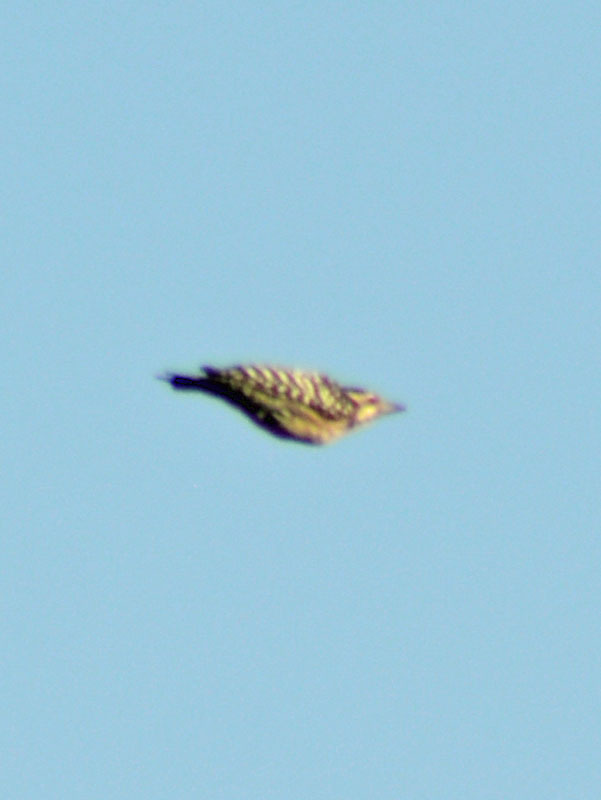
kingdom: Animalia
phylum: Chordata
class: Aves
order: Piciformes
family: Picidae
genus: Dryobates
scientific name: Dryobates scalaris
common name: Ladder-backed woodpecker
